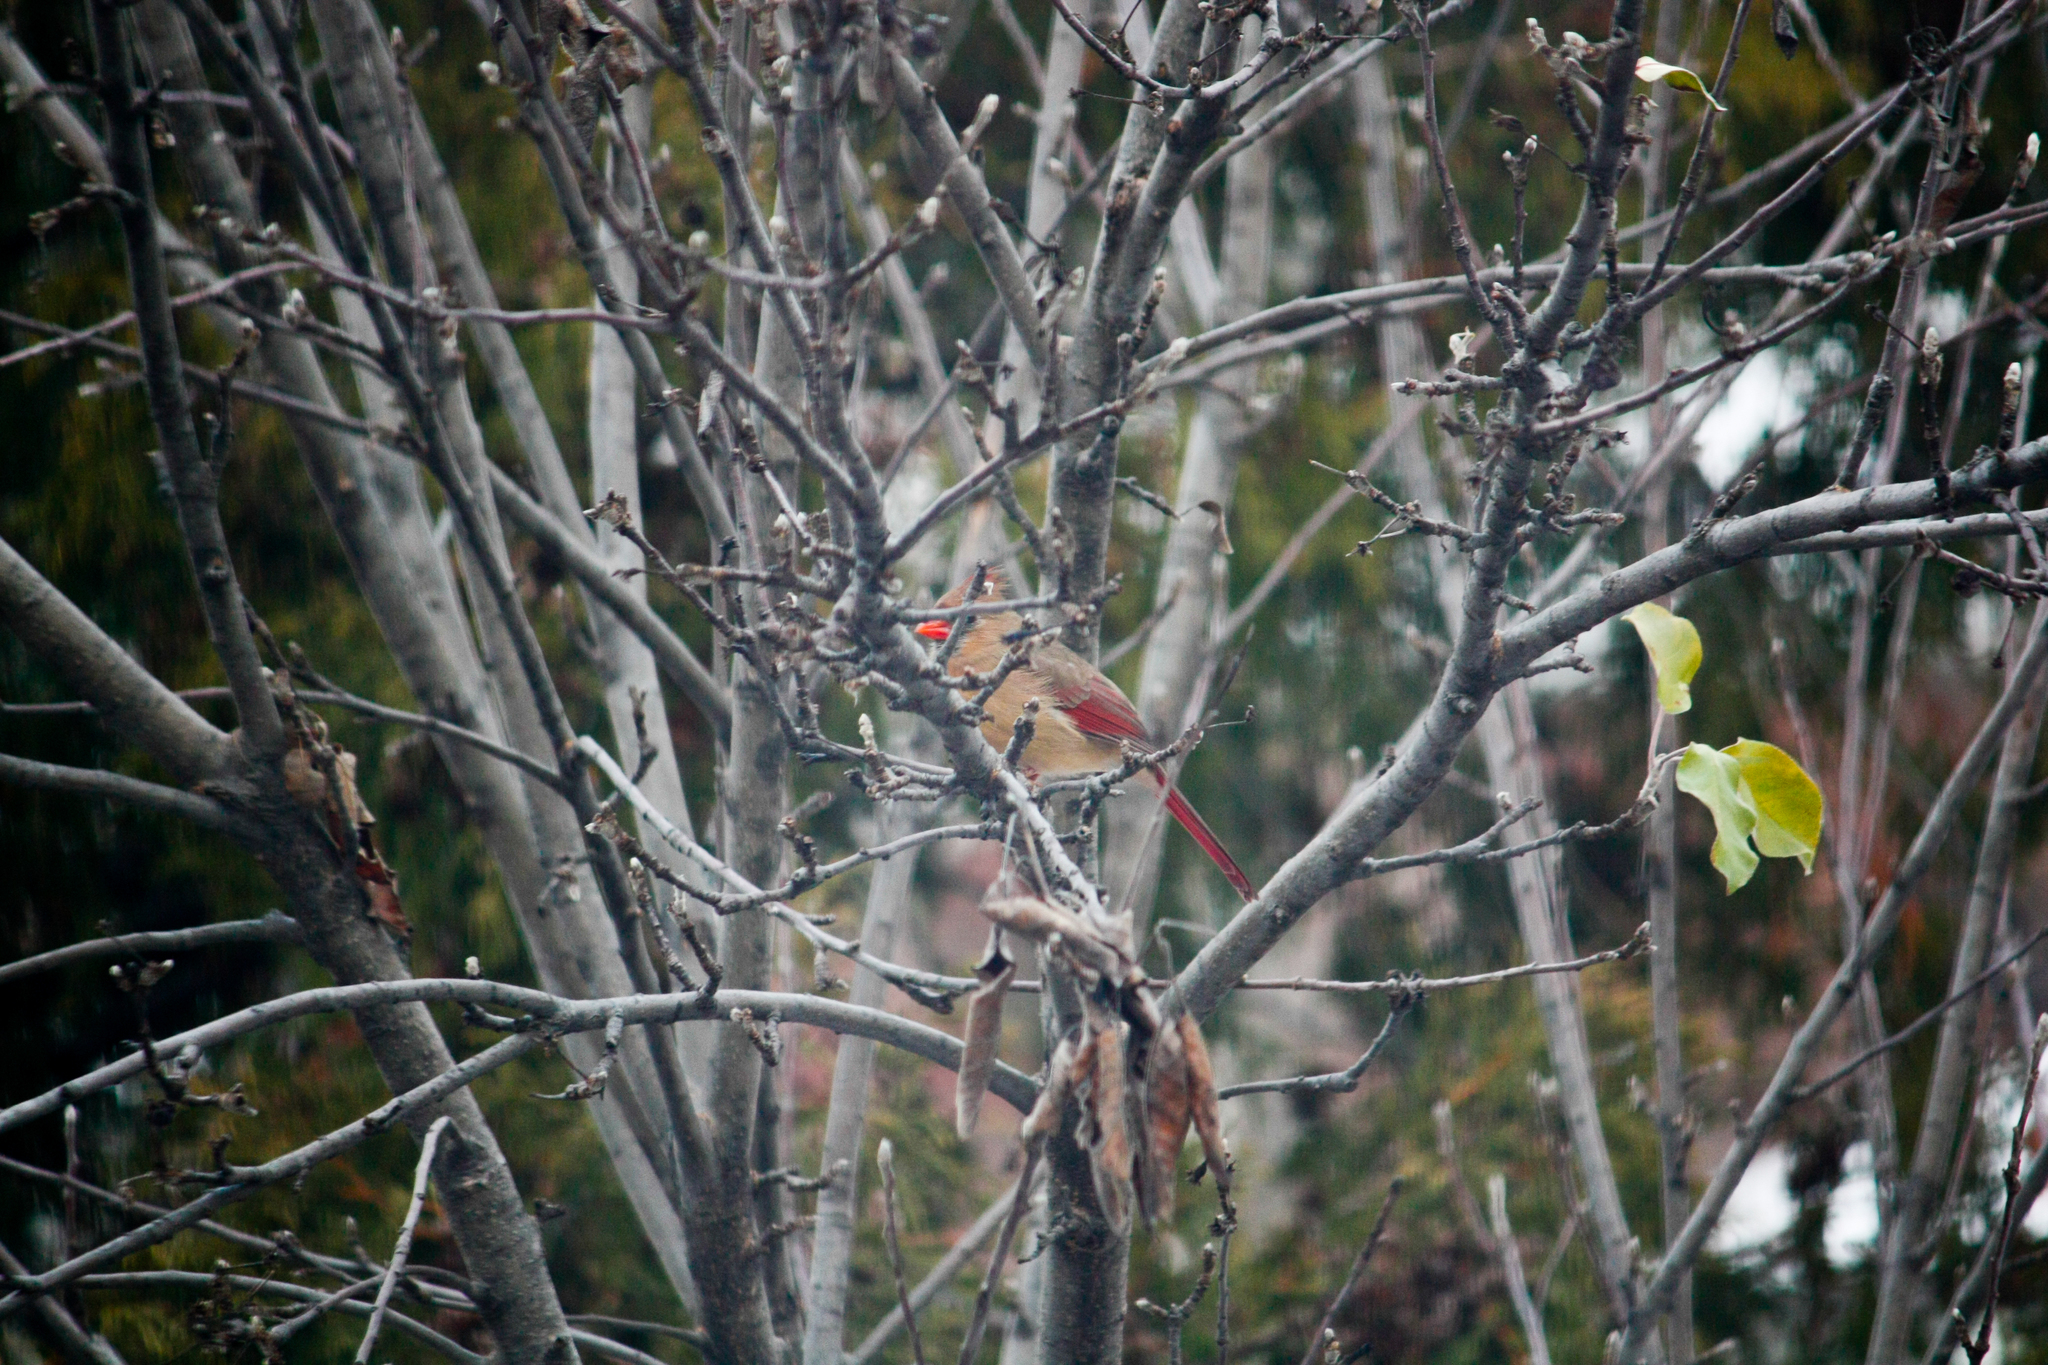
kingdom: Animalia
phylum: Chordata
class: Aves
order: Passeriformes
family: Cardinalidae
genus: Cardinalis
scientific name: Cardinalis cardinalis
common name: Northern cardinal
